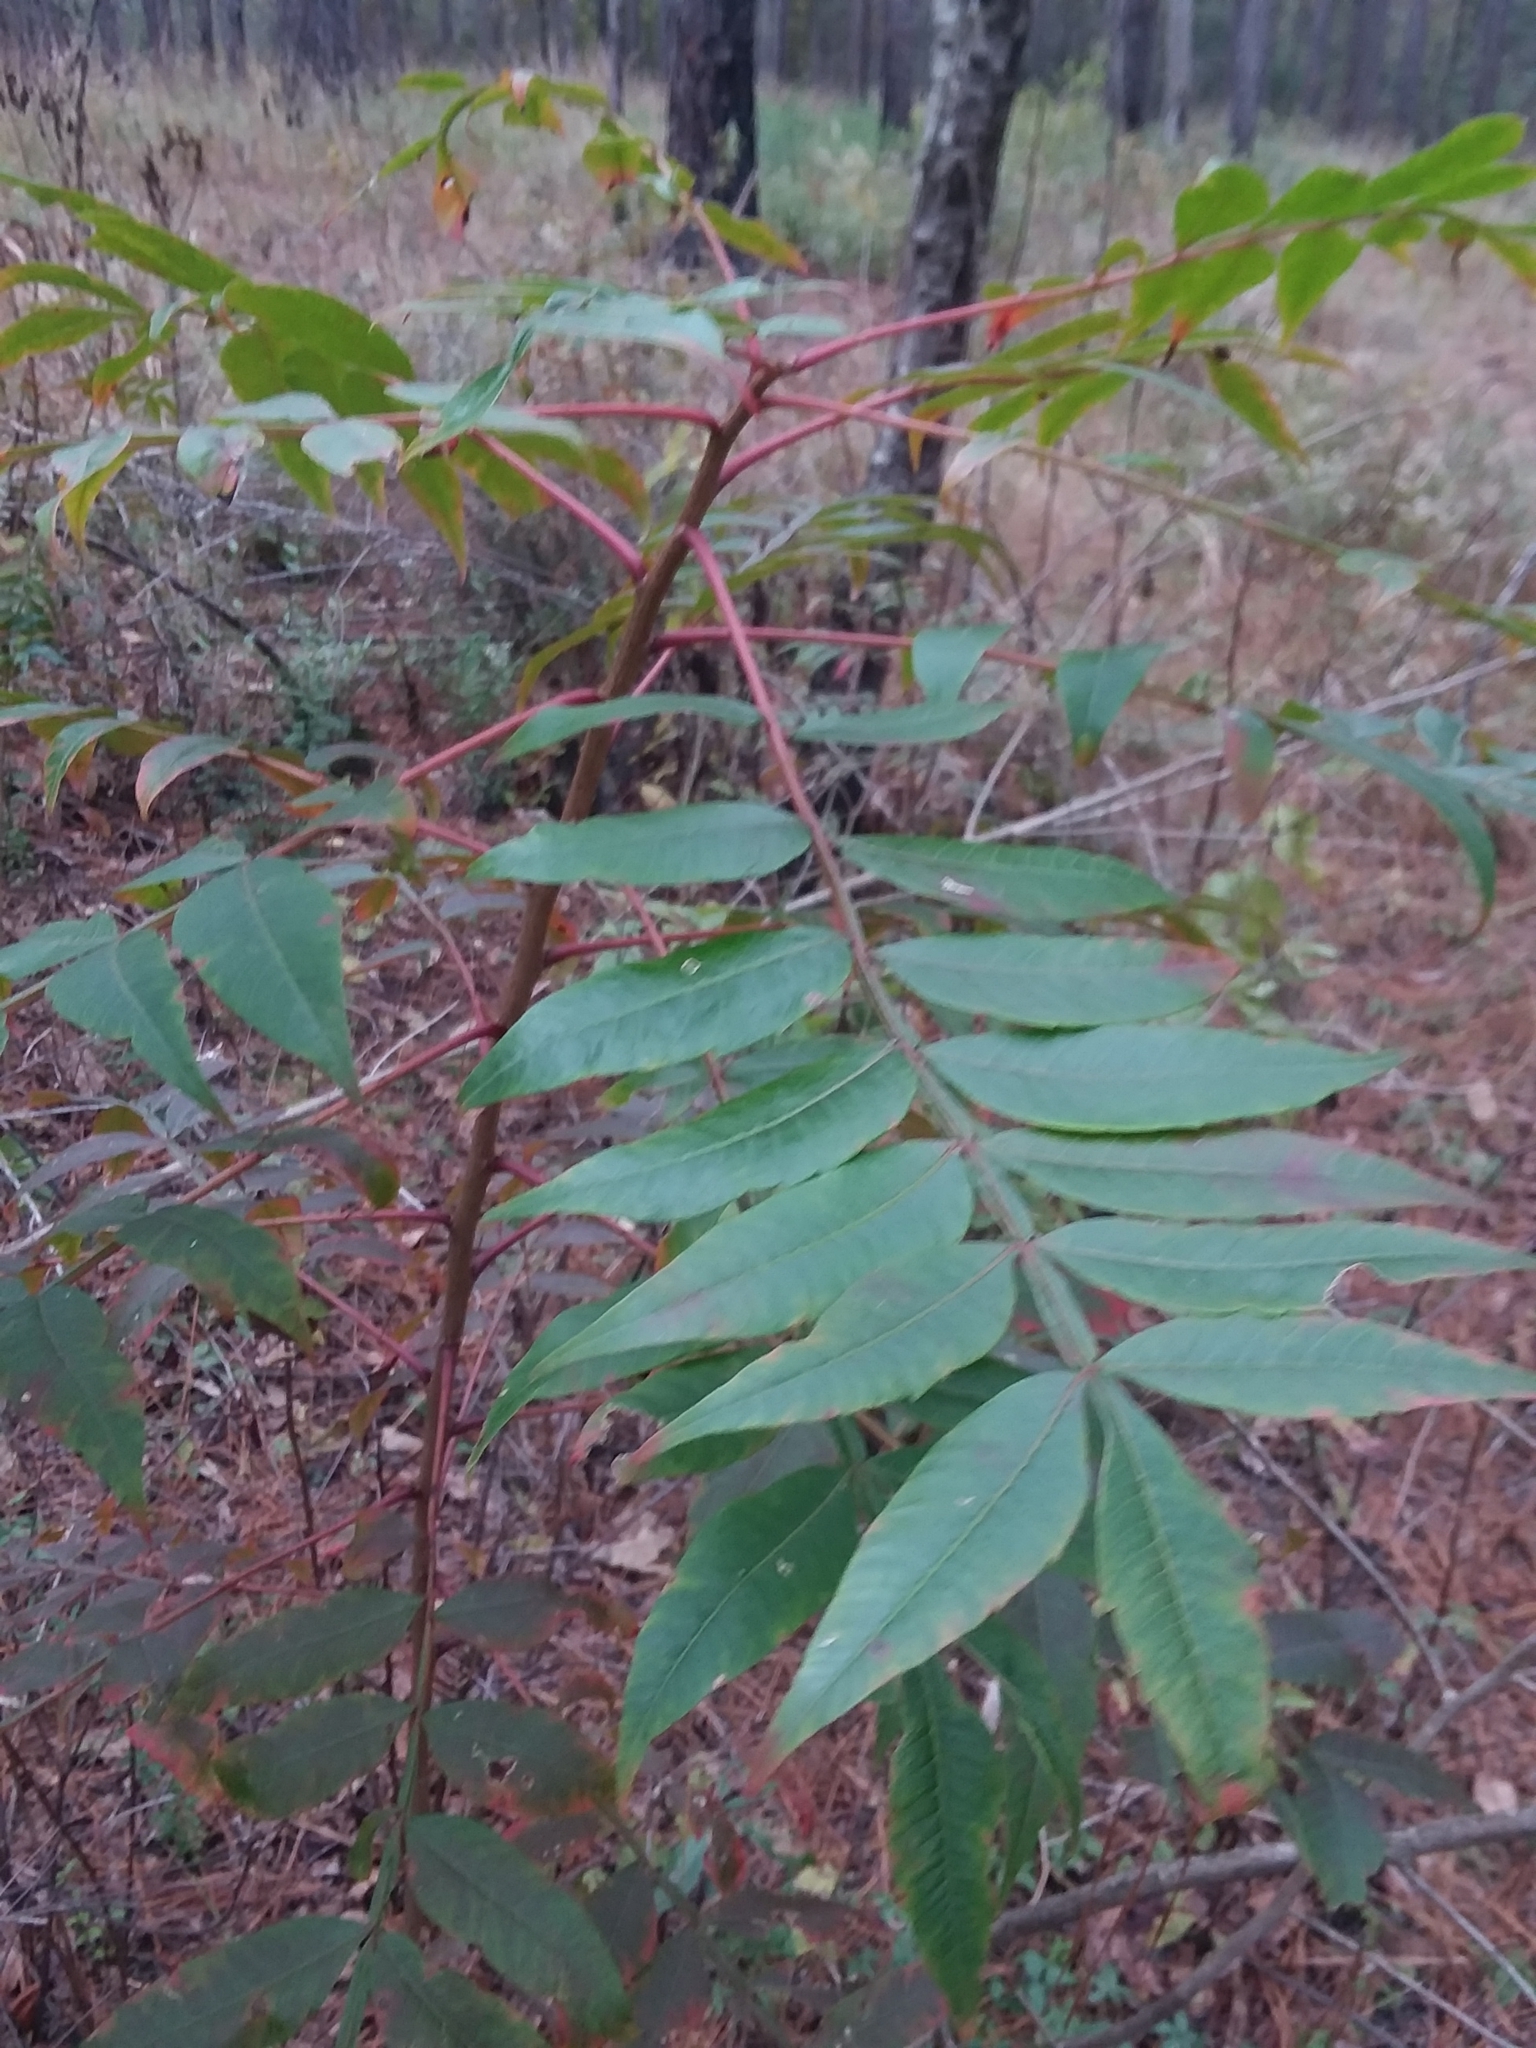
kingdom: Plantae
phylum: Tracheophyta
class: Magnoliopsida
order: Sapindales
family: Anacardiaceae
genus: Rhus
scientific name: Rhus copallina
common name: Shining sumac
